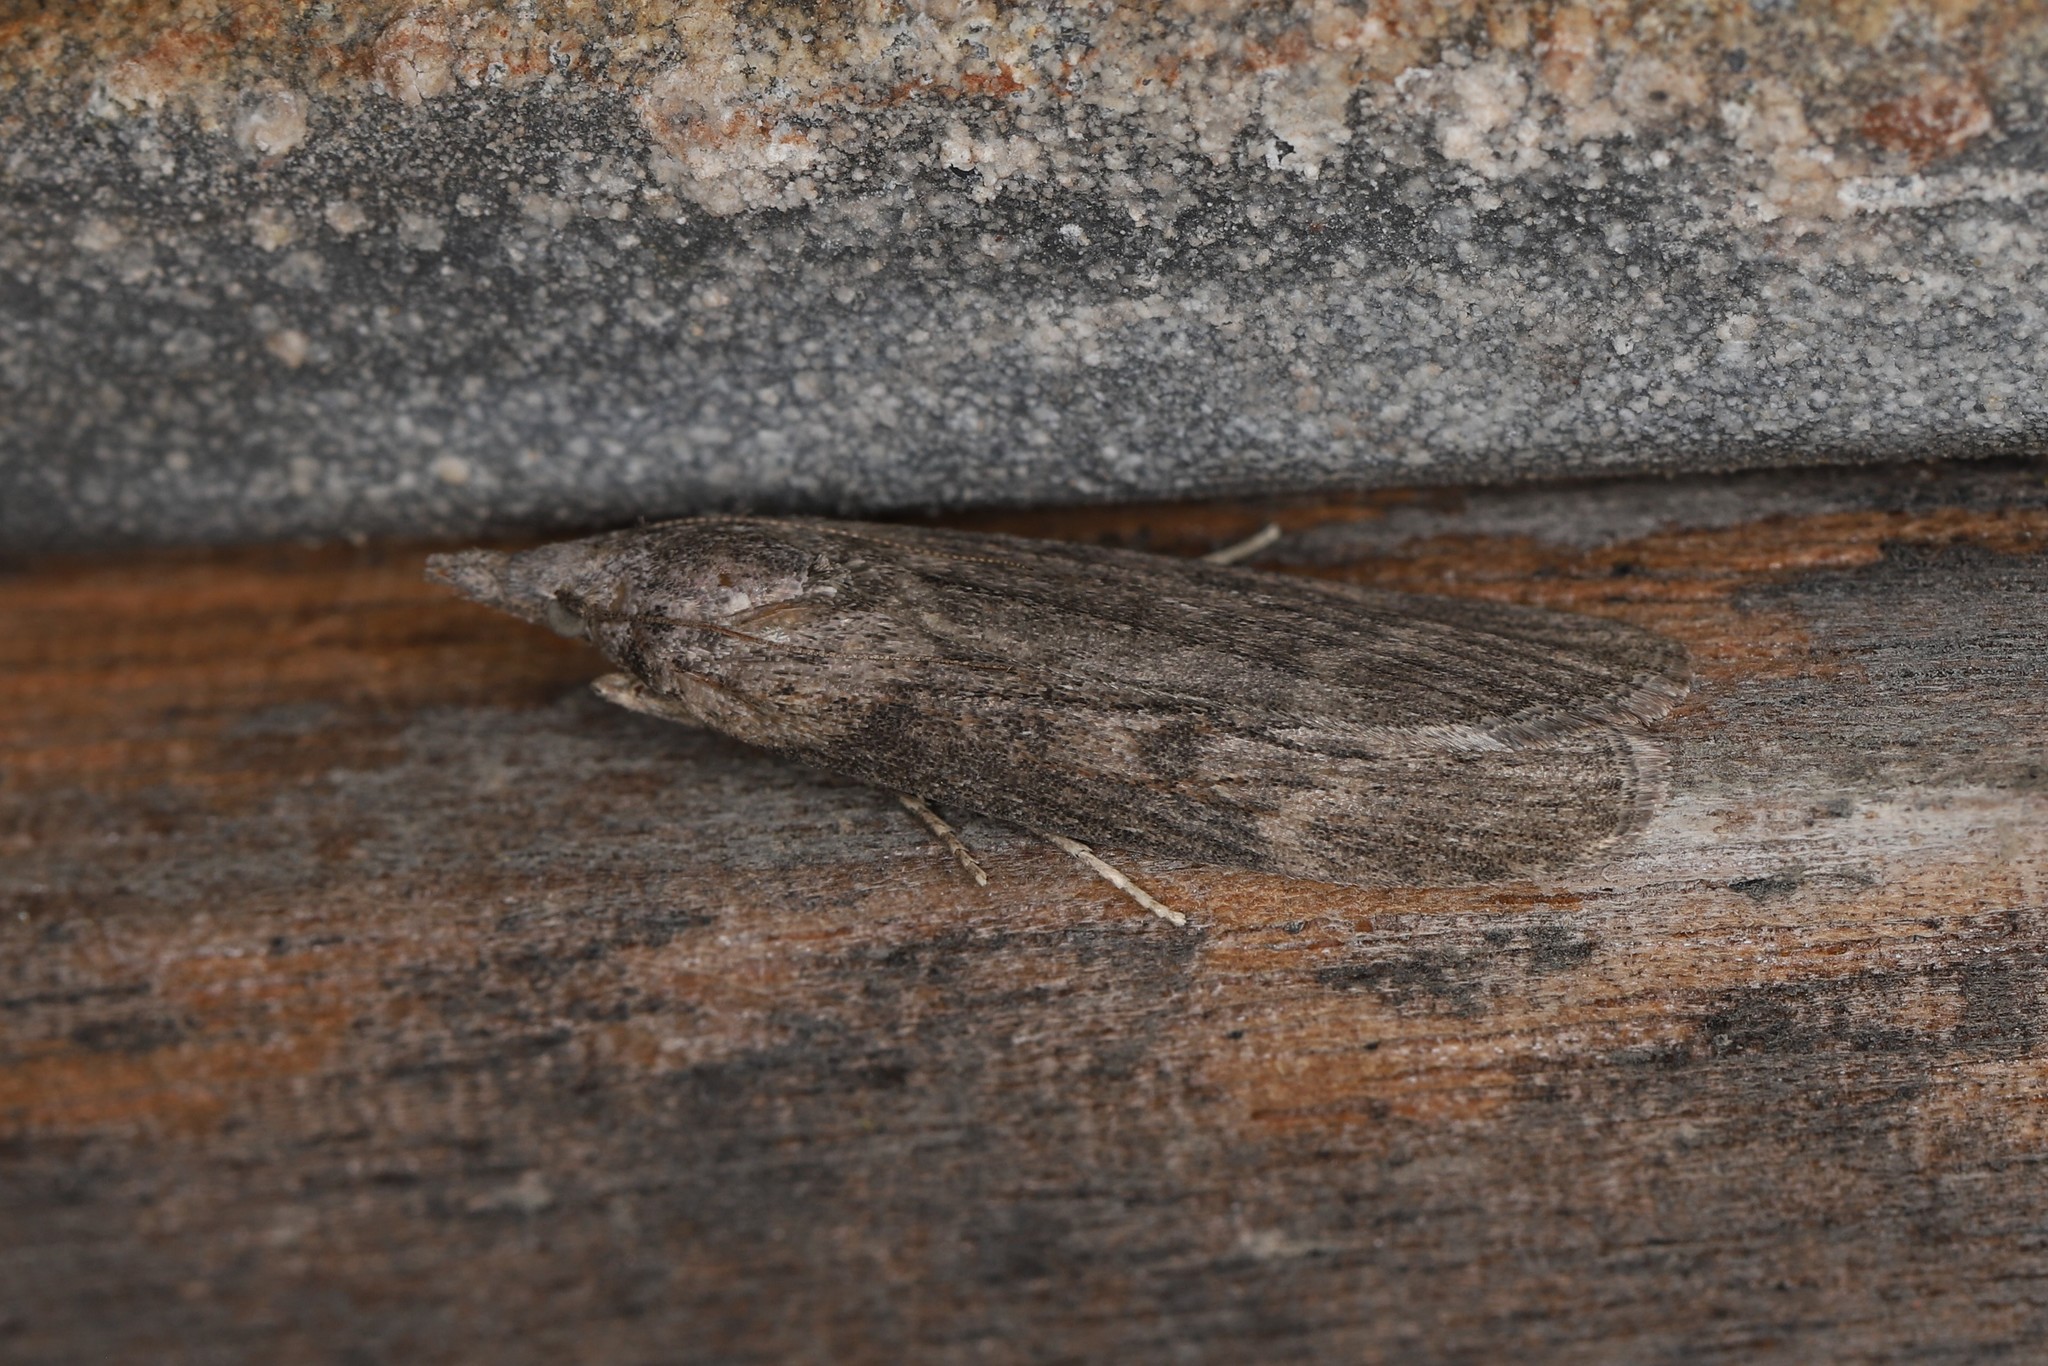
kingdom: Animalia
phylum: Arthropoda
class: Insecta
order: Lepidoptera
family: Pyralidae
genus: Lamoria
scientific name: Lamoria anella
